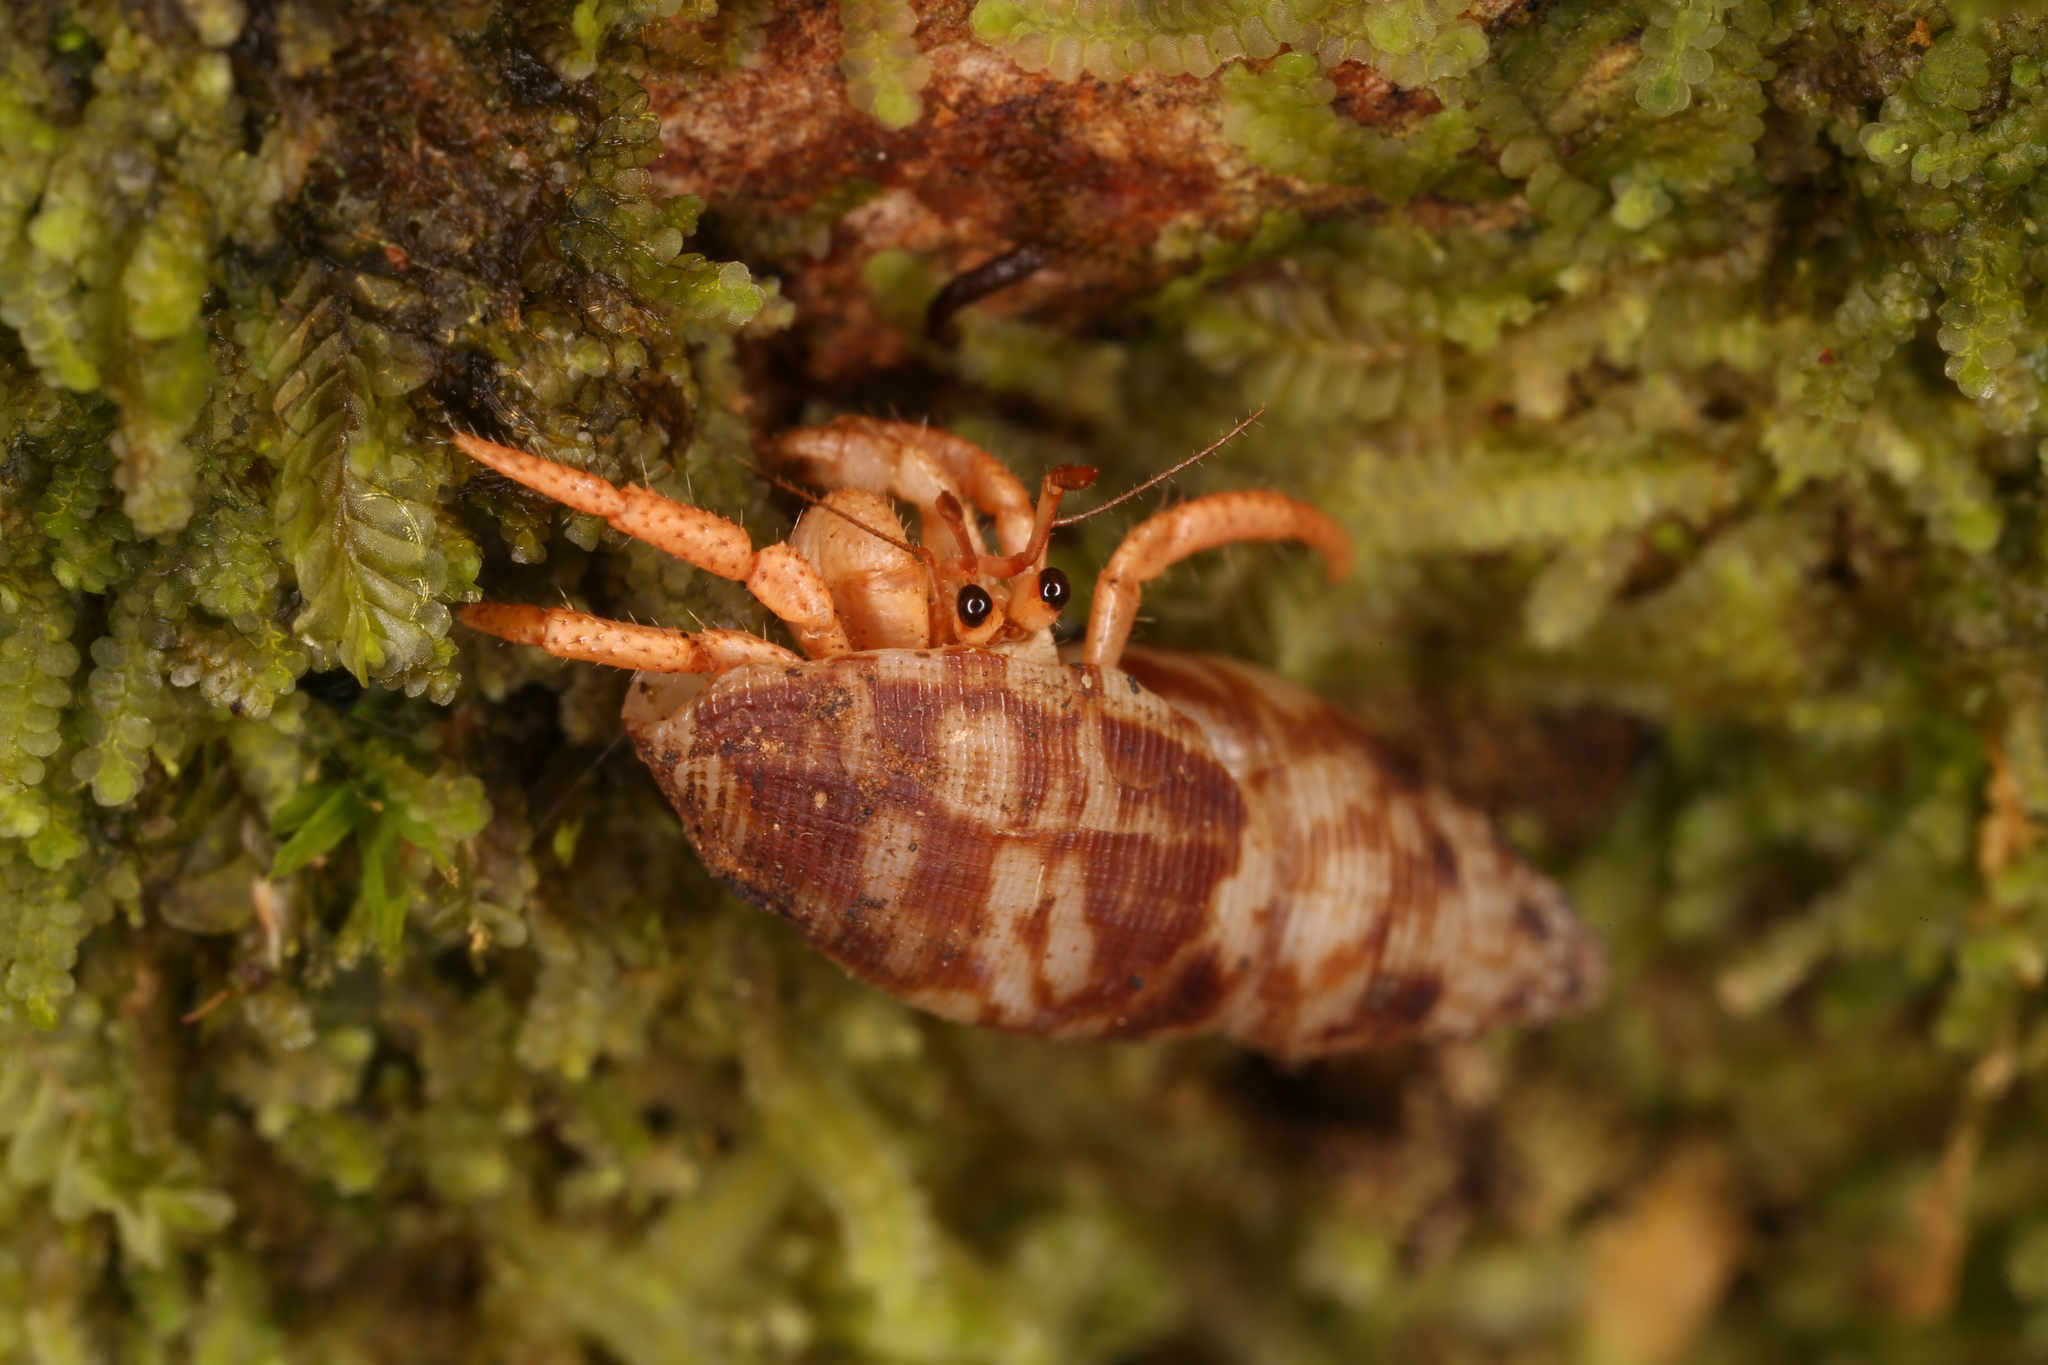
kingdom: Animalia
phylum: Arthropoda
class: Malacostraca
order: Decapoda
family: Coenobitidae
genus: Coenobita
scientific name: Coenobita clypeatus
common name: Caribbean hermit crab
